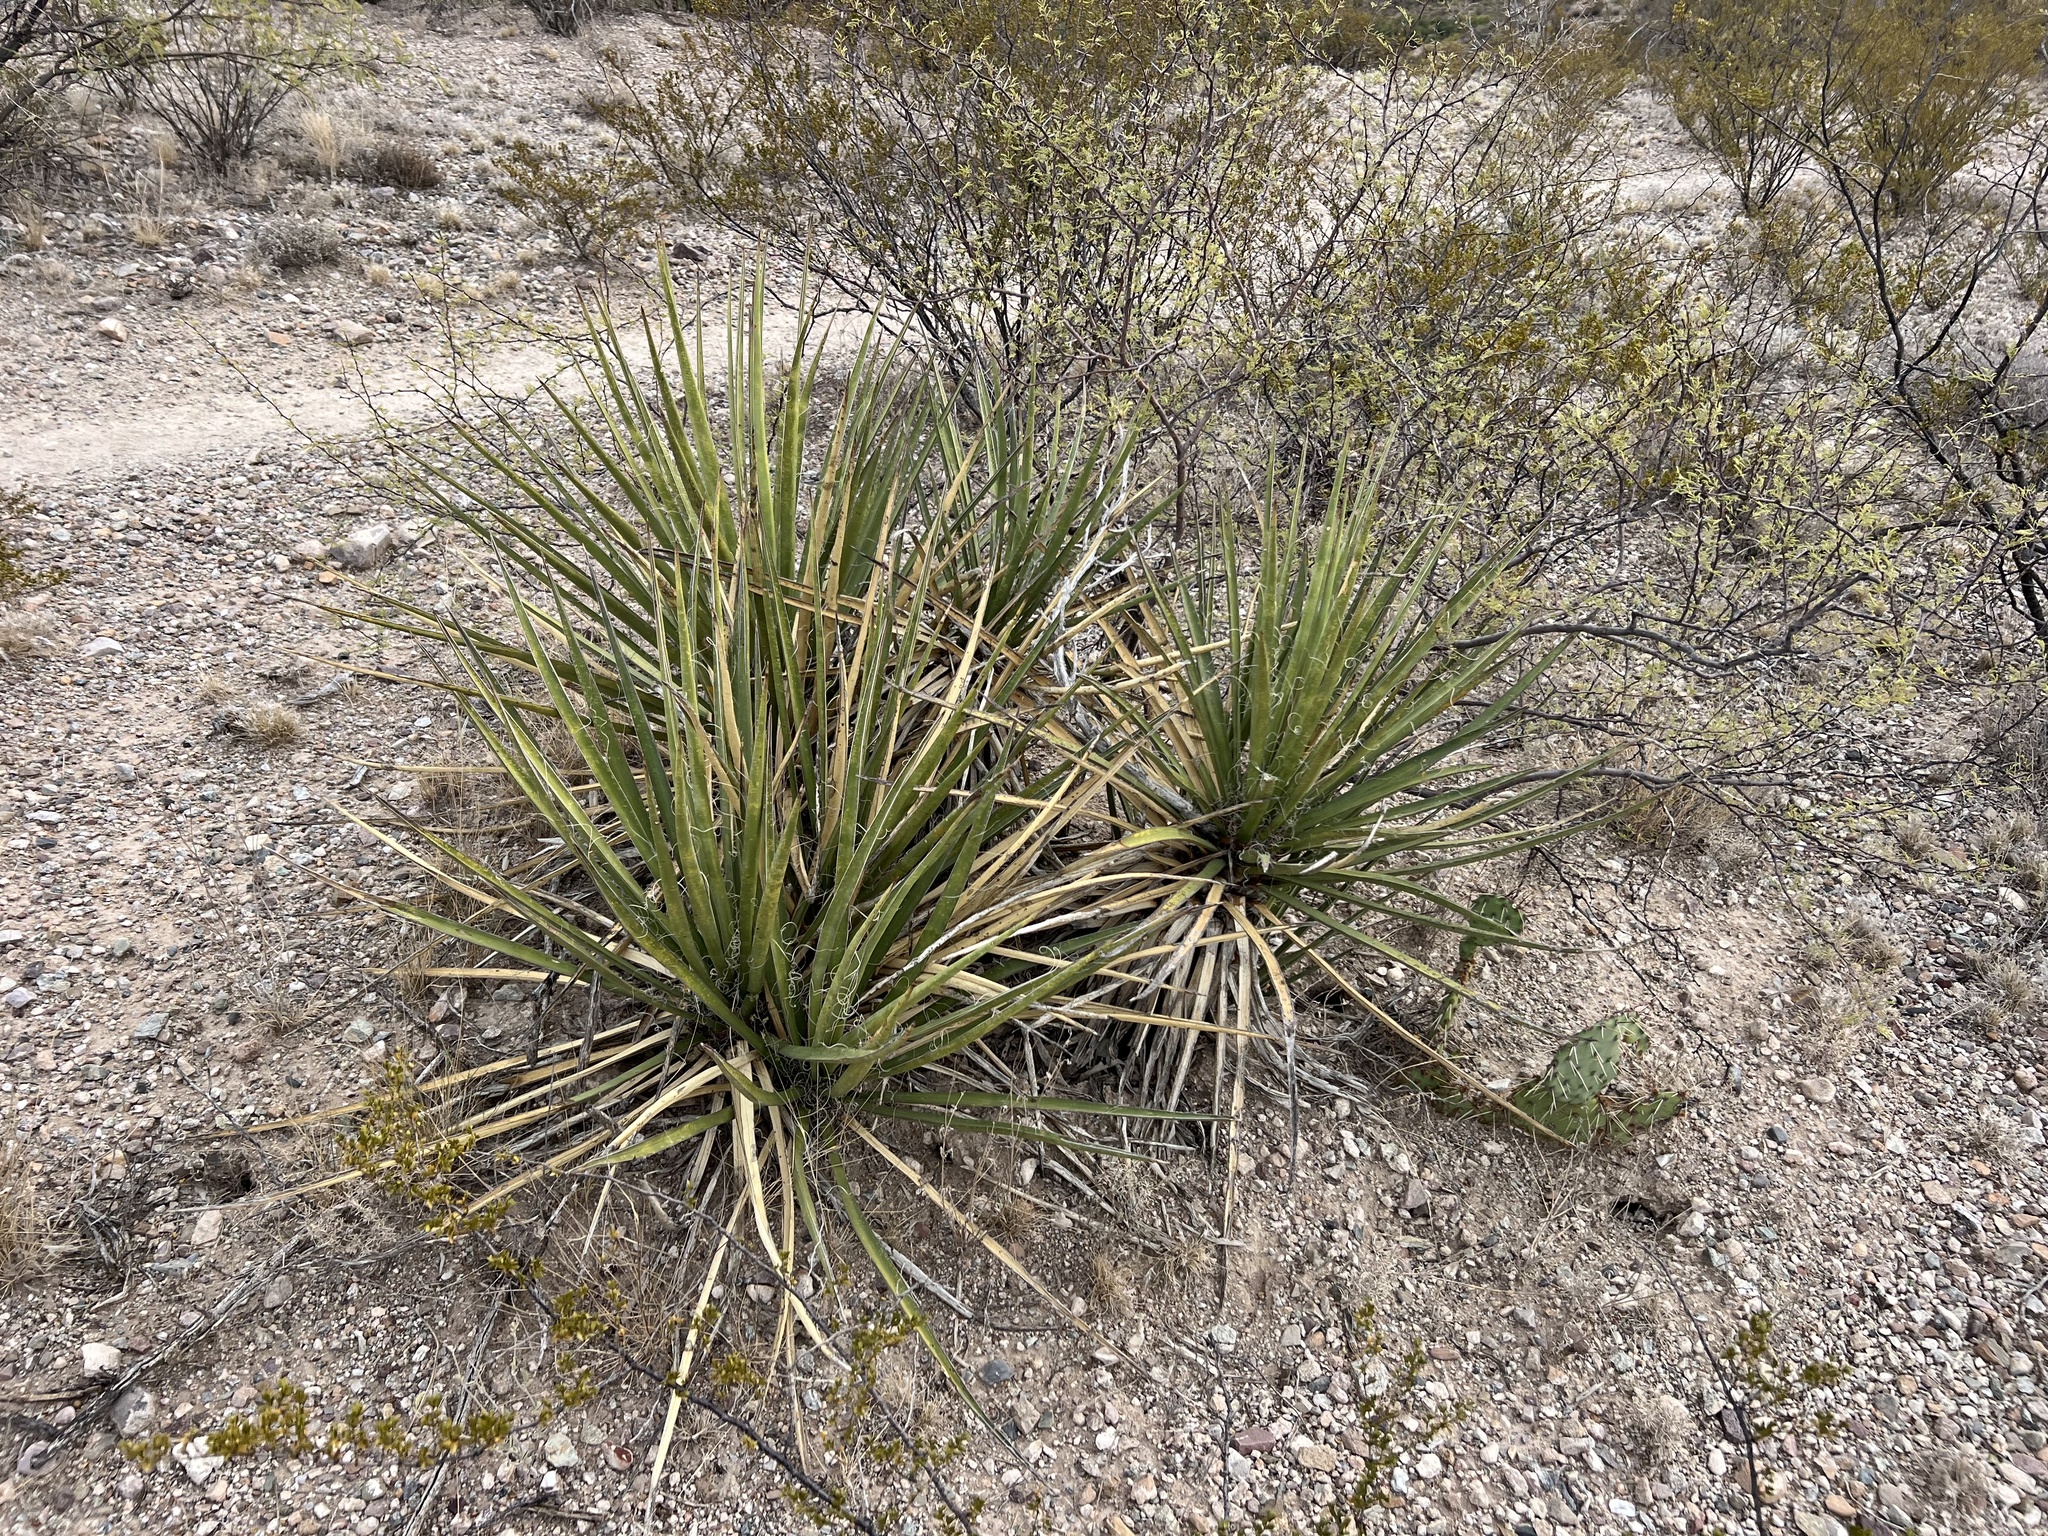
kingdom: Plantae
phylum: Tracheophyta
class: Liliopsida
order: Asparagales
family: Asparagaceae
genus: Yucca
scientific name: Yucca baccata
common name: Banana yucca
